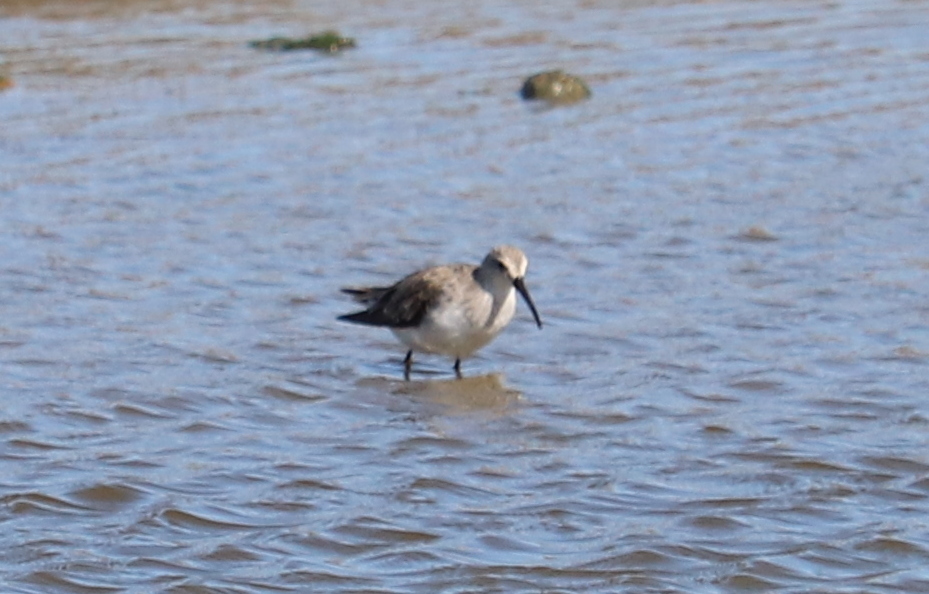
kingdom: Animalia
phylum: Chordata
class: Aves
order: Charadriiformes
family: Scolopacidae
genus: Calidris
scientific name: Calidris ferruginea
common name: Curlew sandpiper
